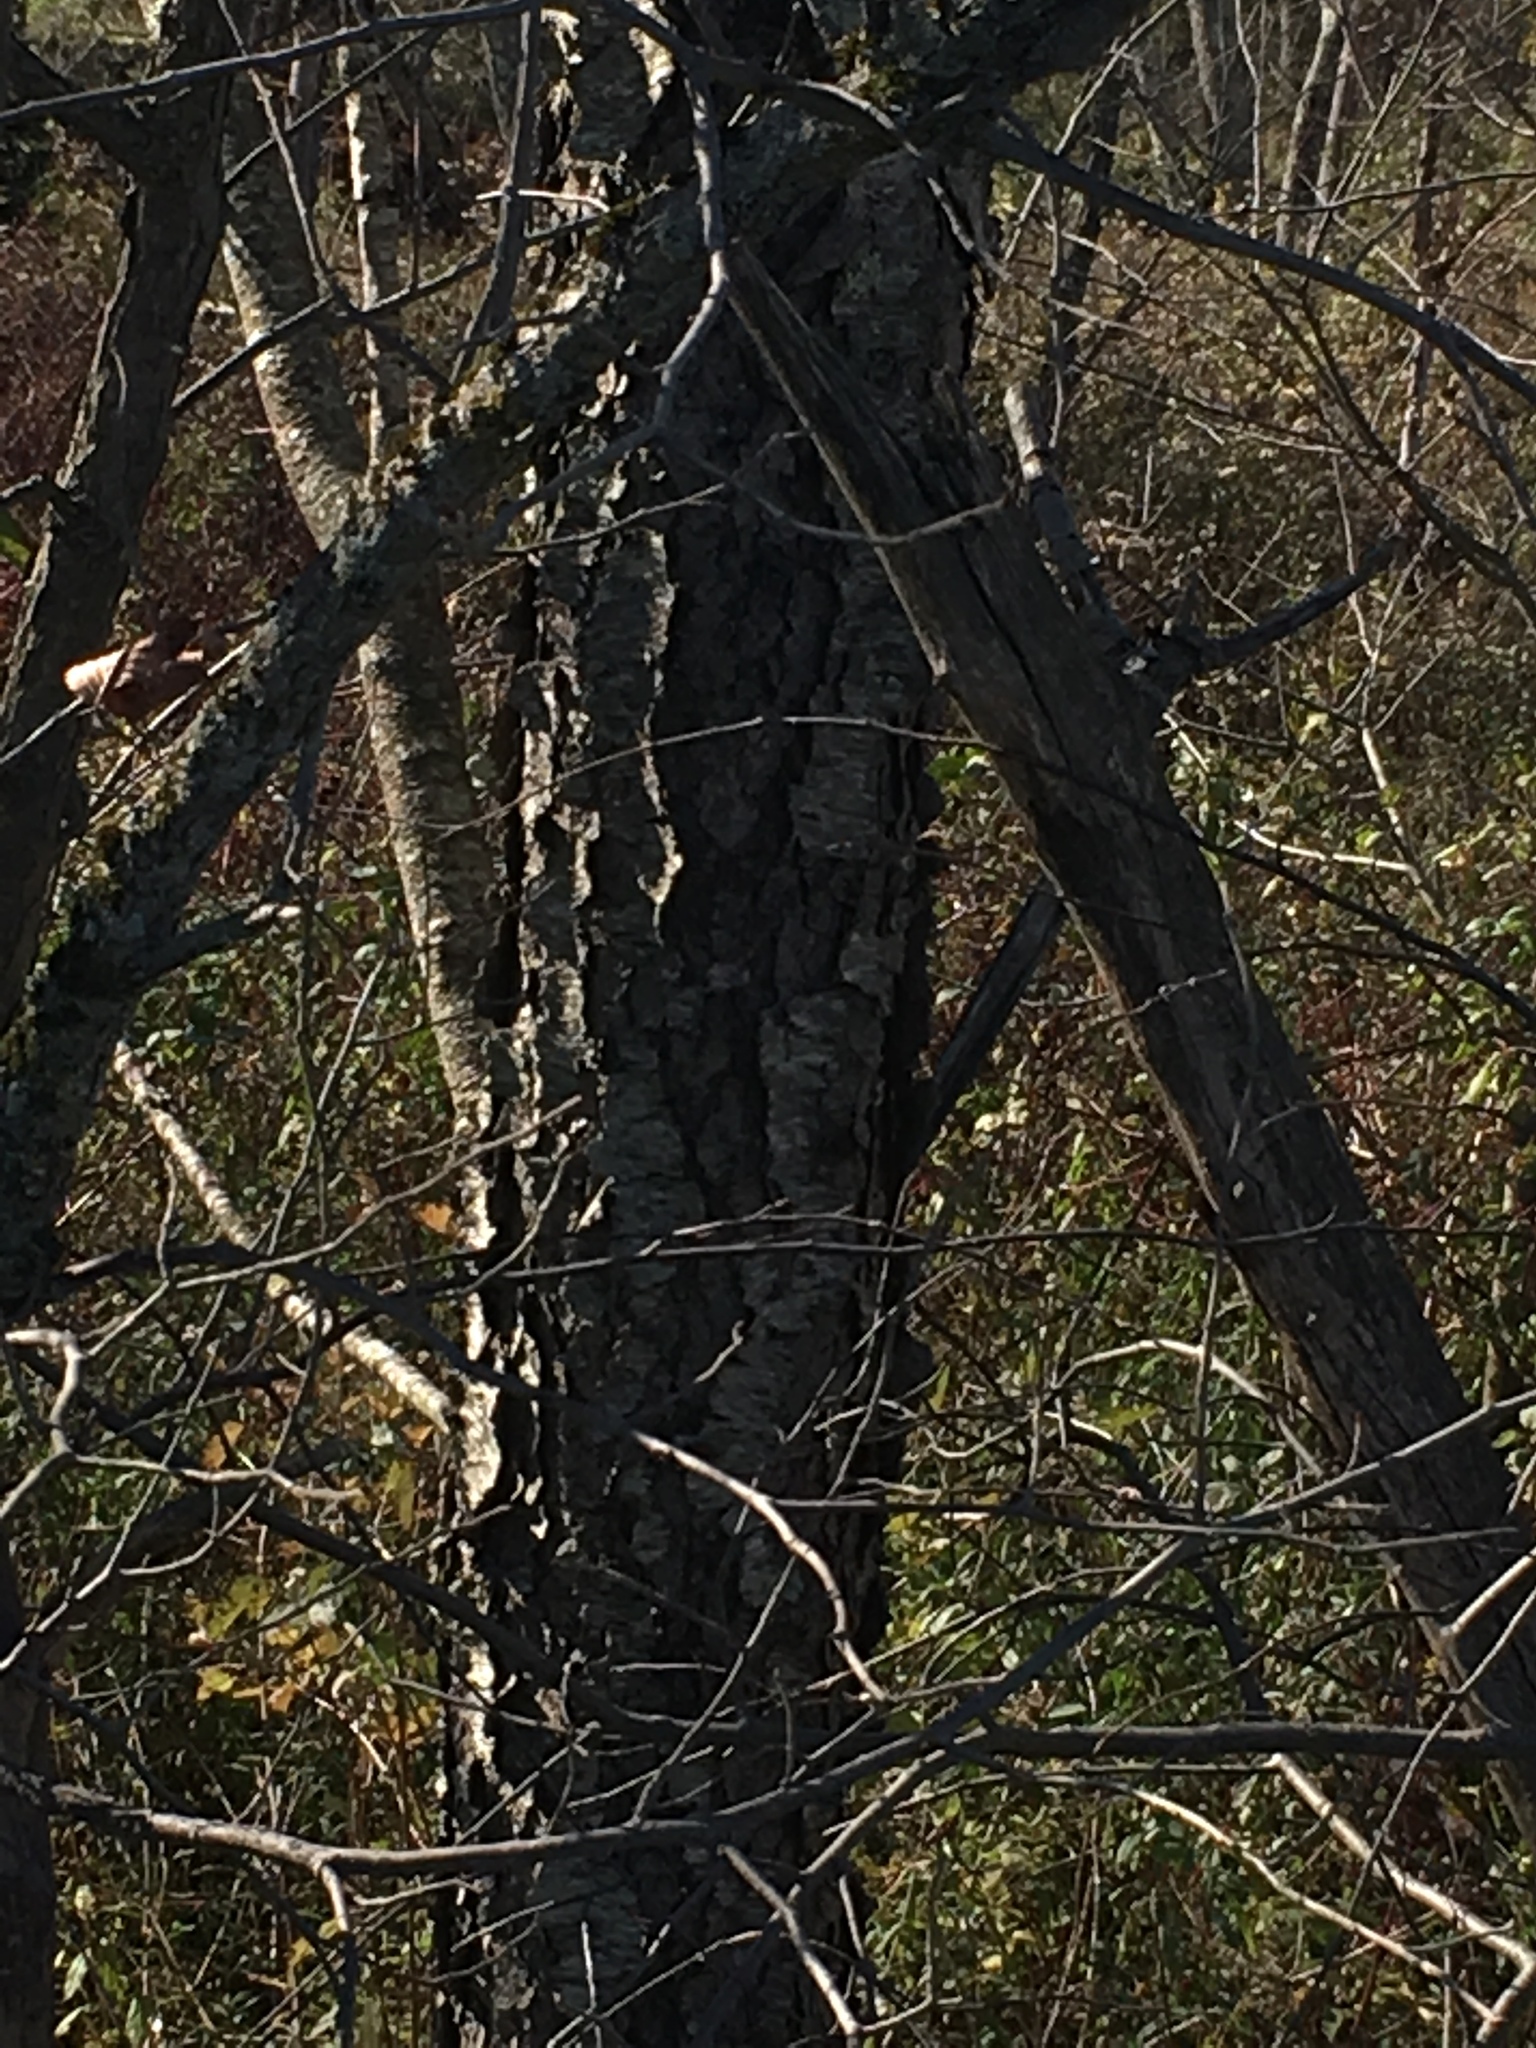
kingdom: Plantae
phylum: Tracheophyta
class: Magnoliopsida
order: Rosales
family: Rosaceae
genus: Prunus
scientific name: Prunus serotina
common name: Black cherry
